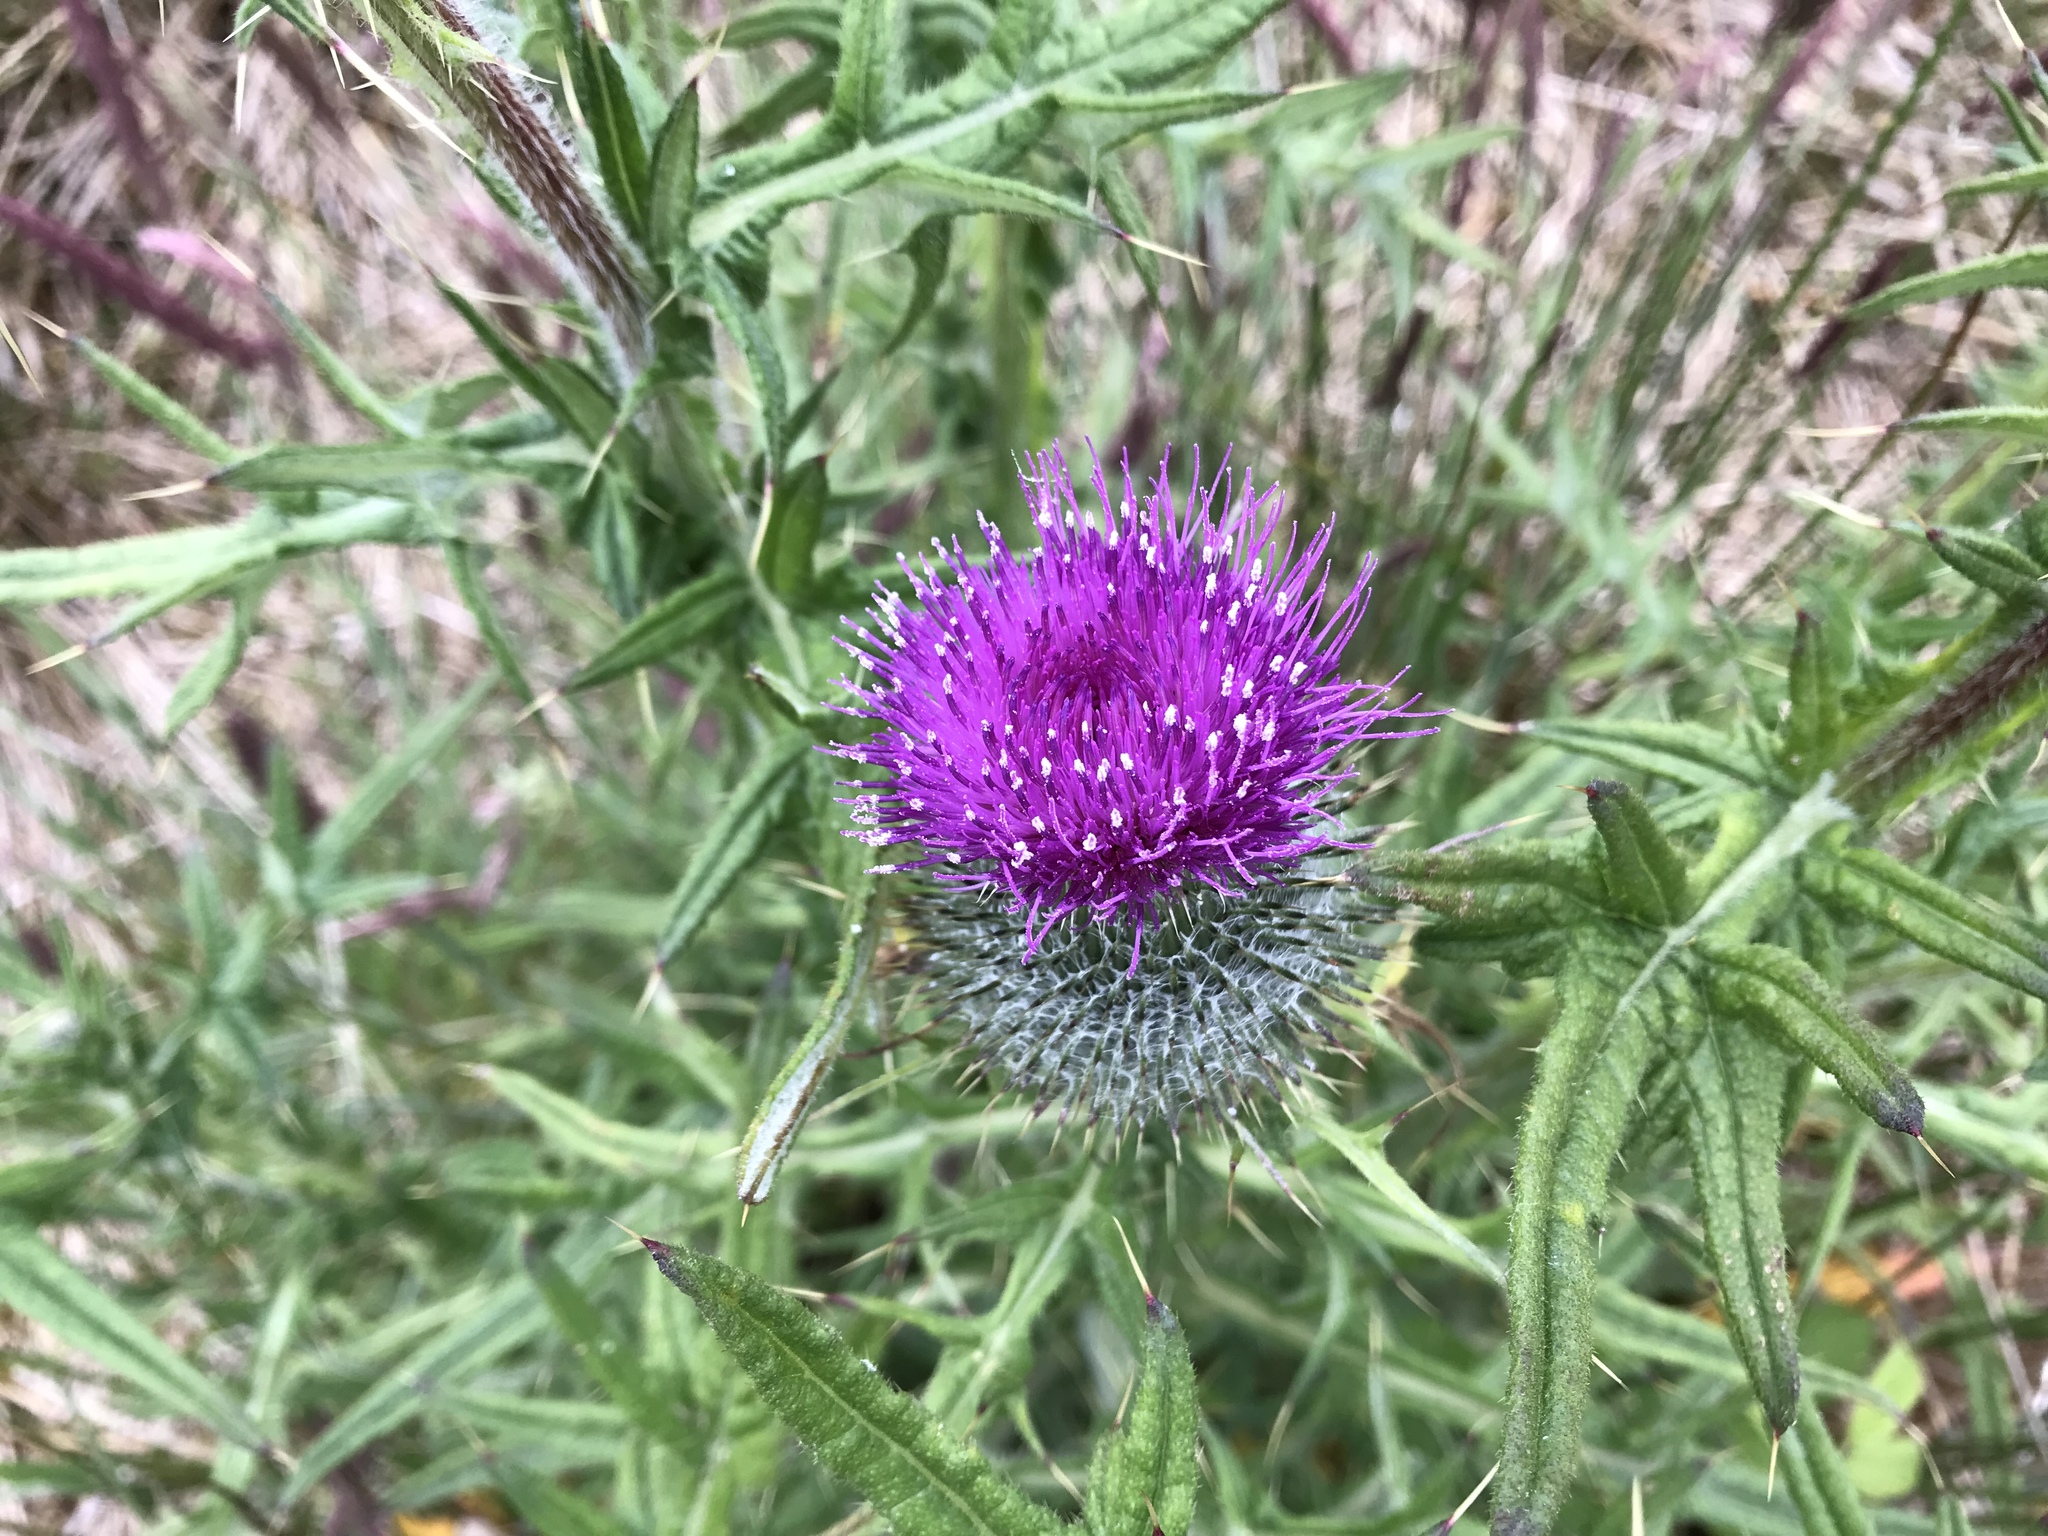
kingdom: Plantae
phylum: Tracheophyta
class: Magnoliopsida
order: Asterales
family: Asteraceae
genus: Cirsium
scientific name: Cirsium vulgare
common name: Bull thistle
